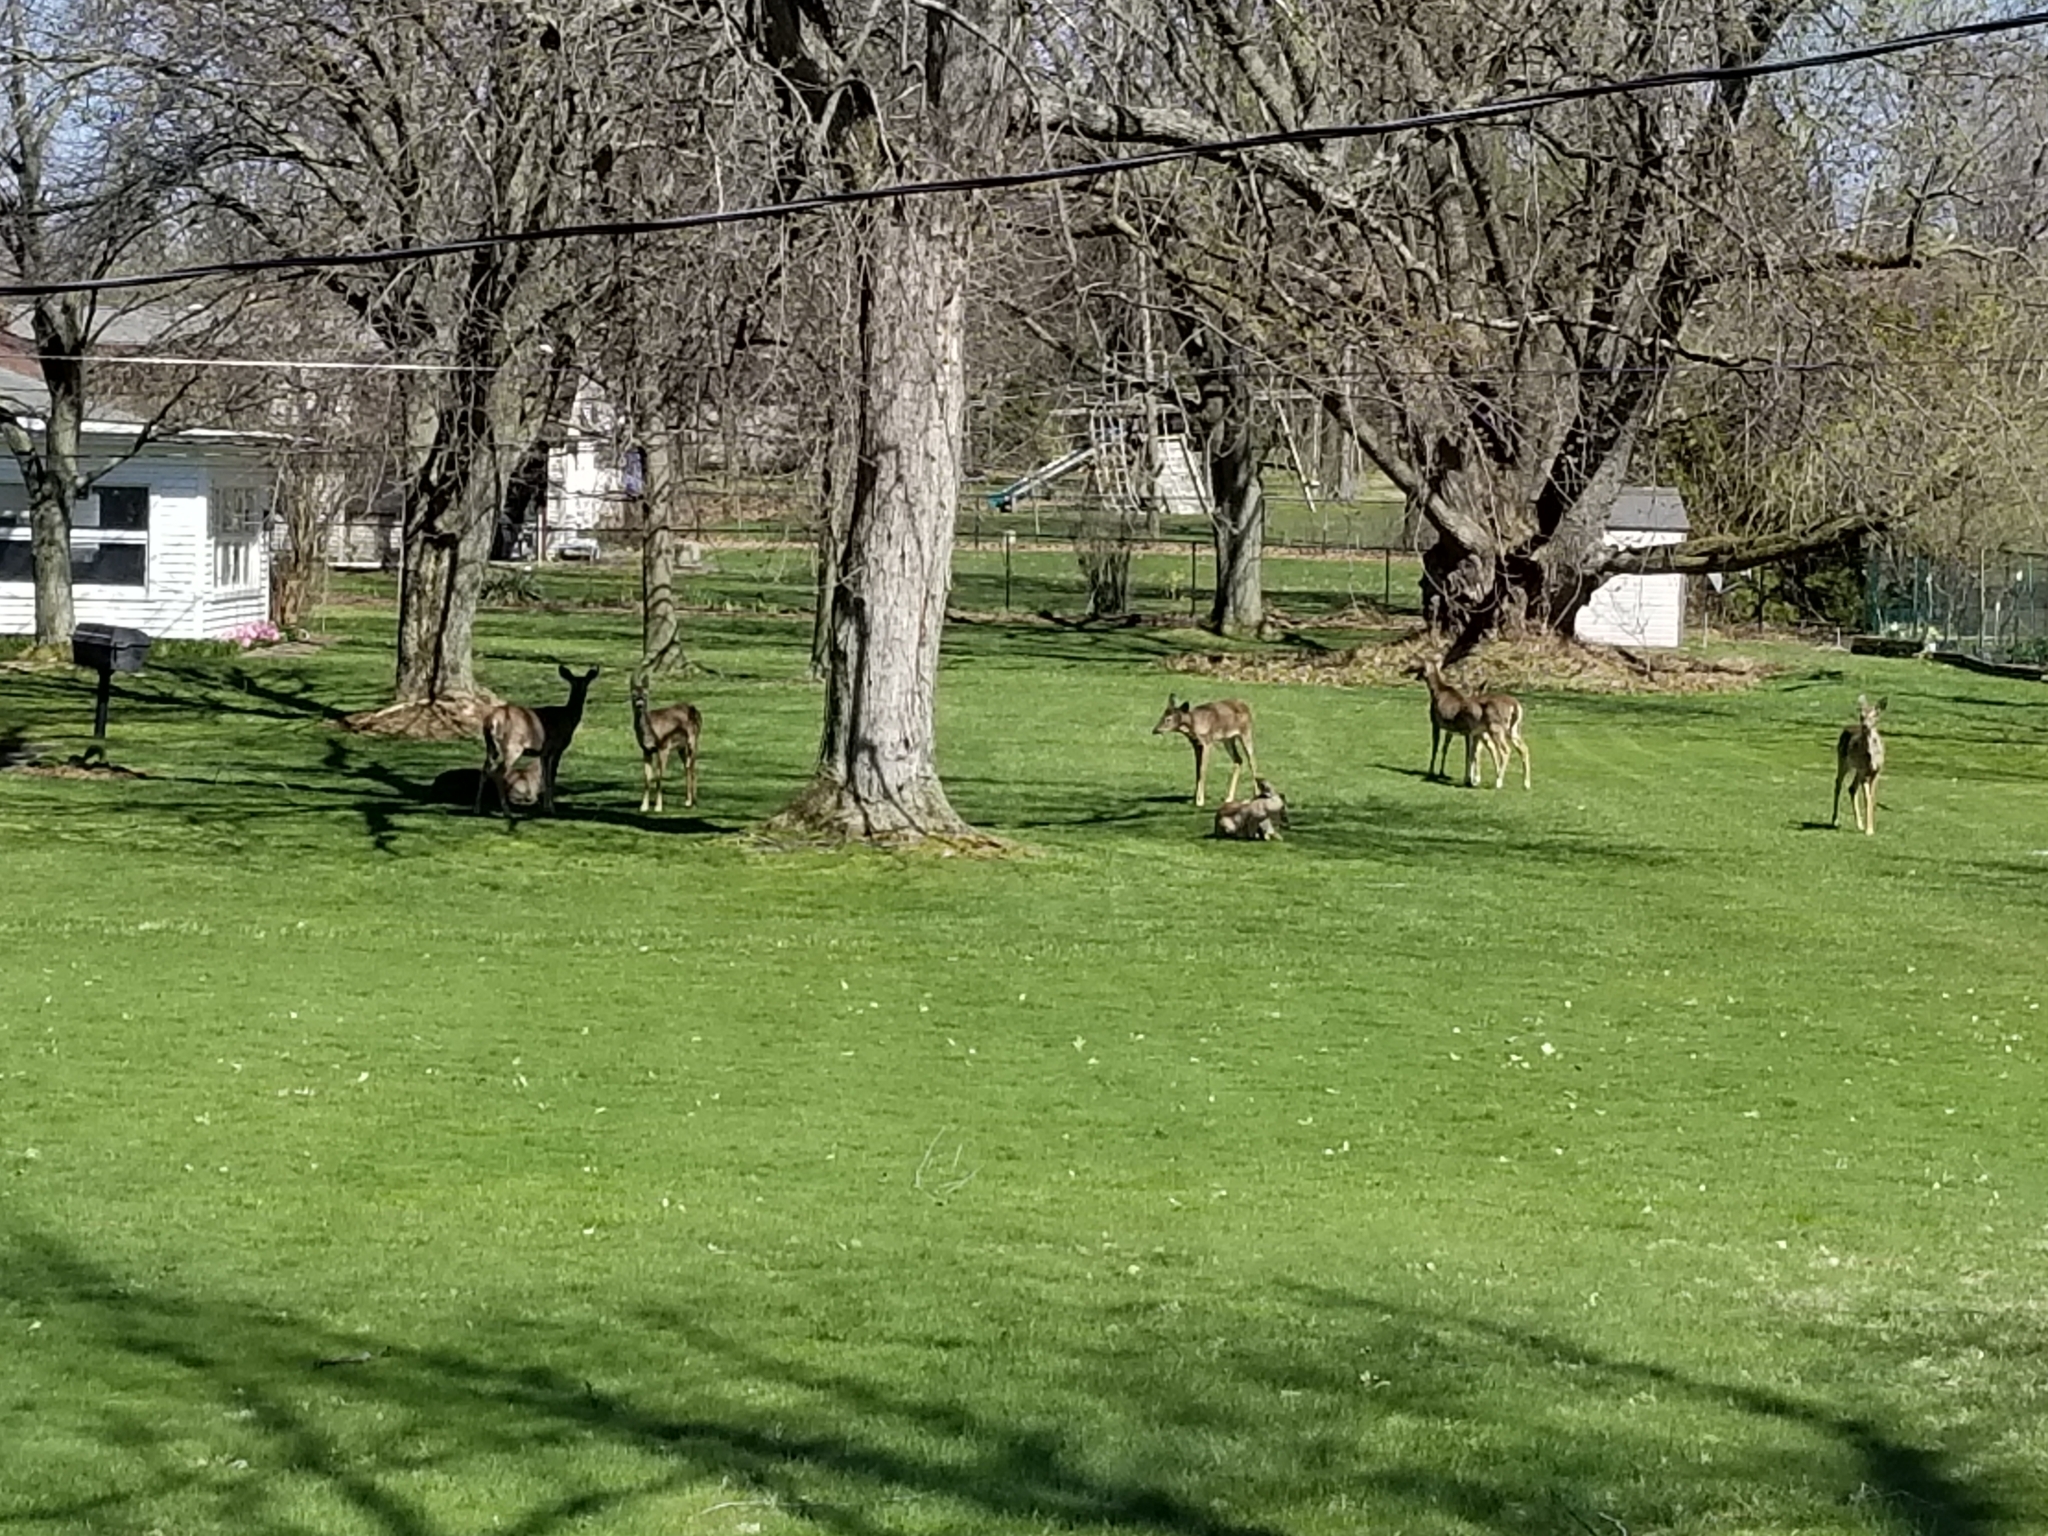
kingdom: Animalia
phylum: Chordata
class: Mammalia
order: Artiodactyla
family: Cervidae
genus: Odocoileus
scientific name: Odocoileus virginianus
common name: White-tailed deer
